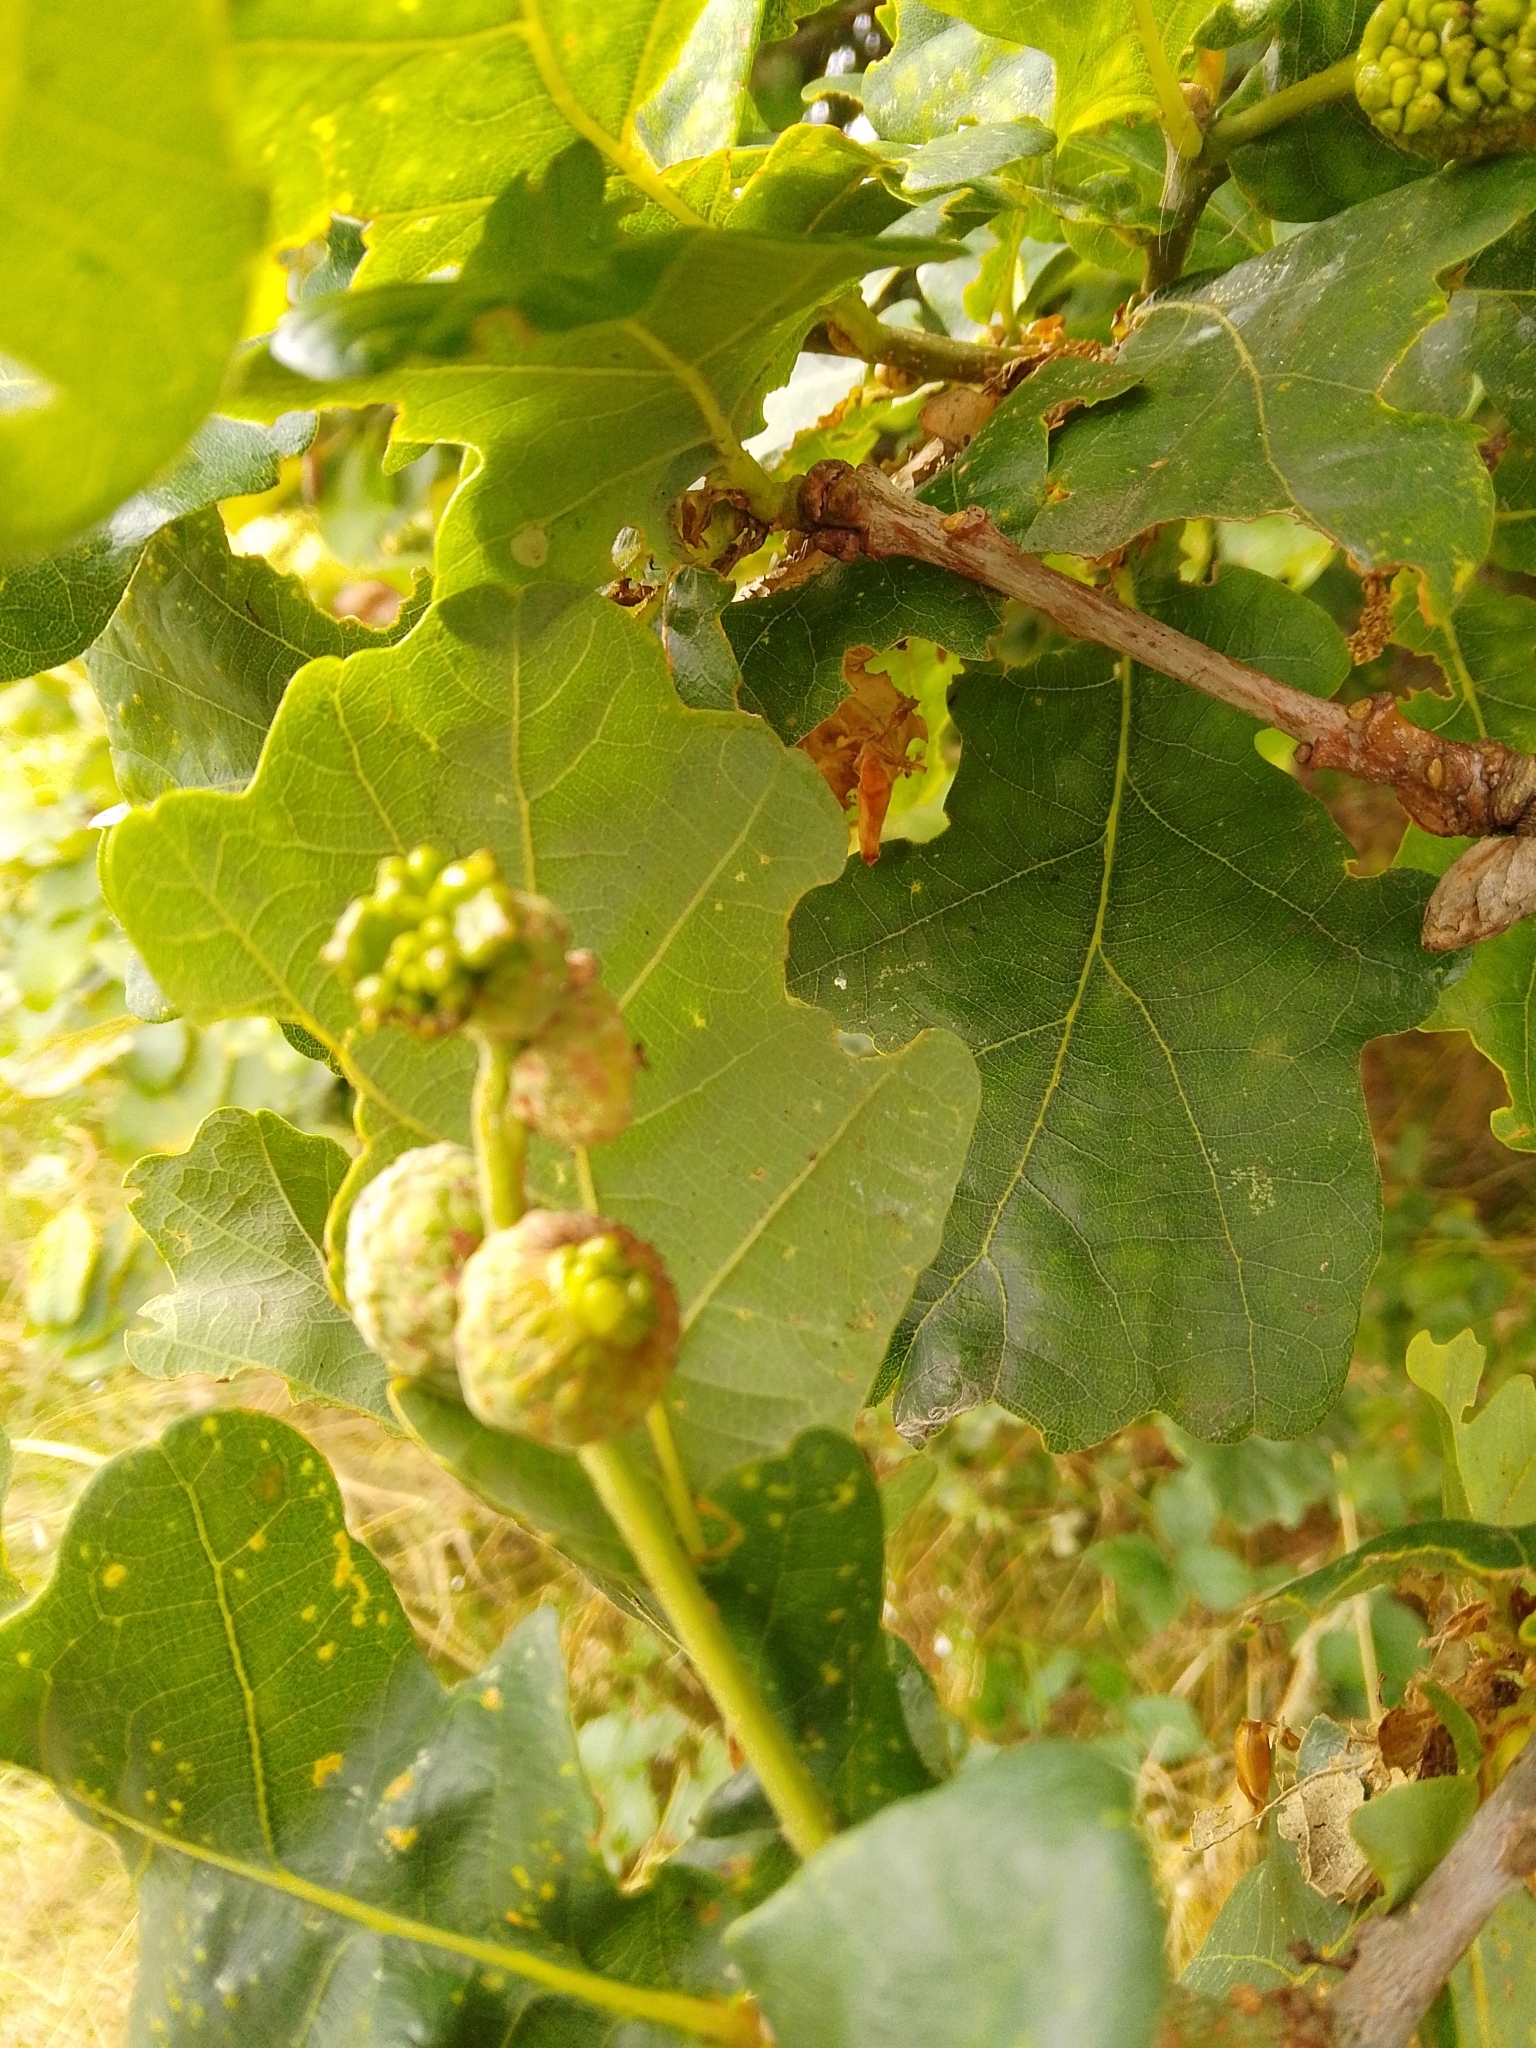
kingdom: Animalia
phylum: Arthropoda
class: Insecta
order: Hymenoptera
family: Cynipidae
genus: Andricus
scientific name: Andricus quercuscalicis
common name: Knopper gall
